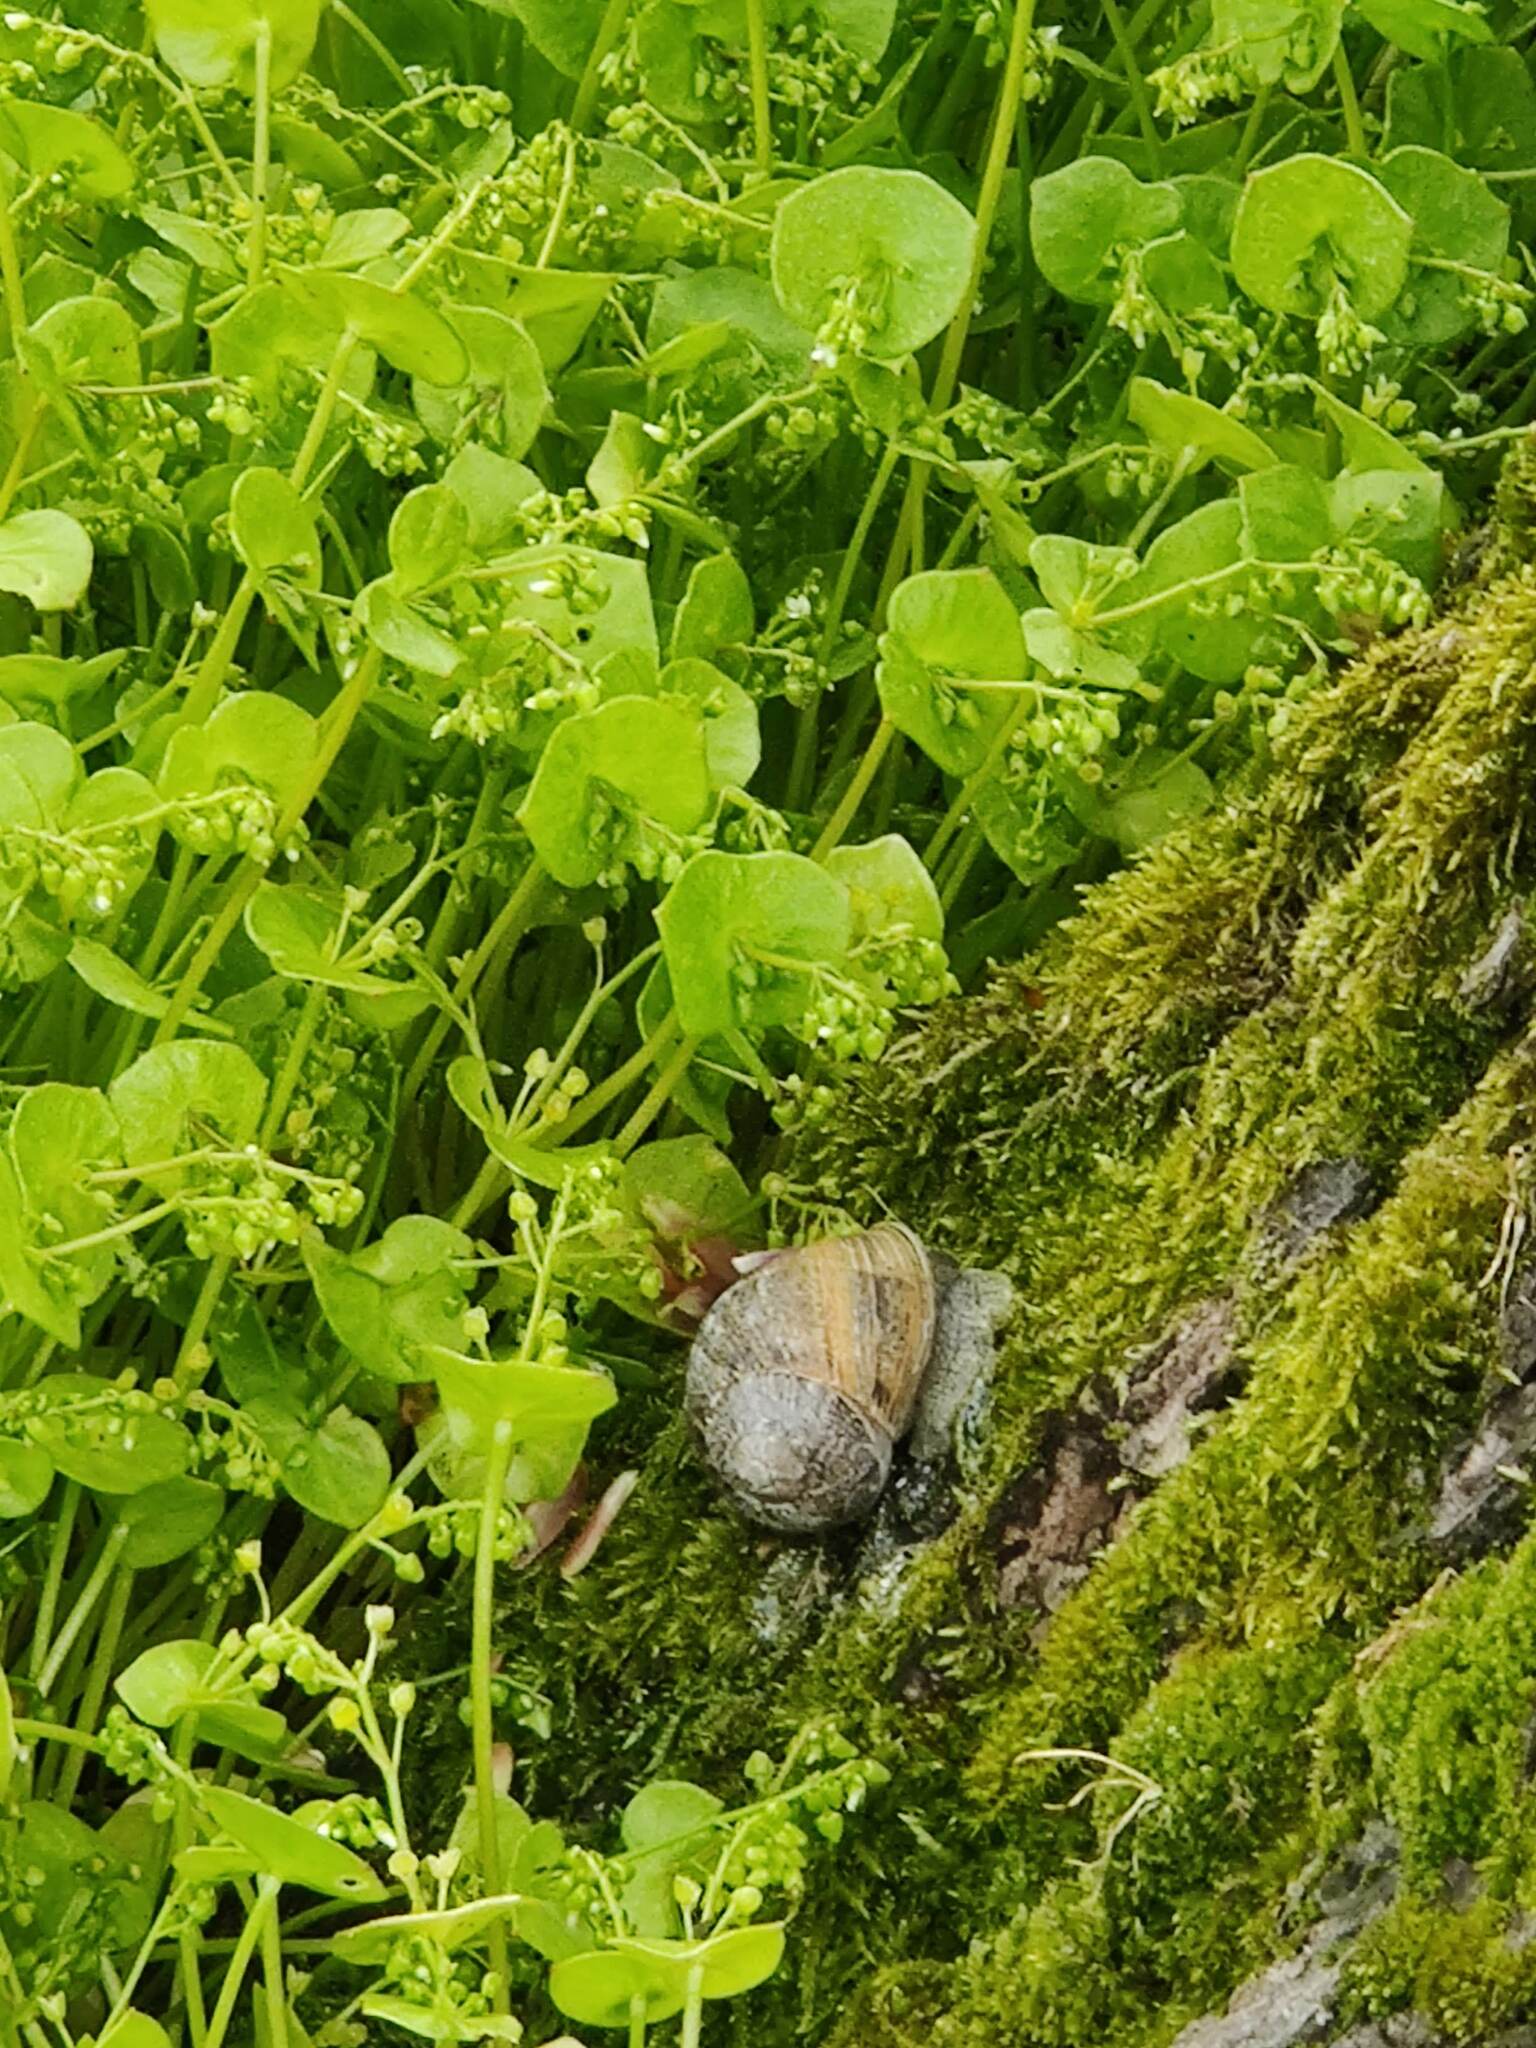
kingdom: Animalia
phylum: Mollusca
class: Gastropoda
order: Stylommatophora
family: Helicidae
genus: Cornu
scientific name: Cornu aspersum
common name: Brown garden snail
